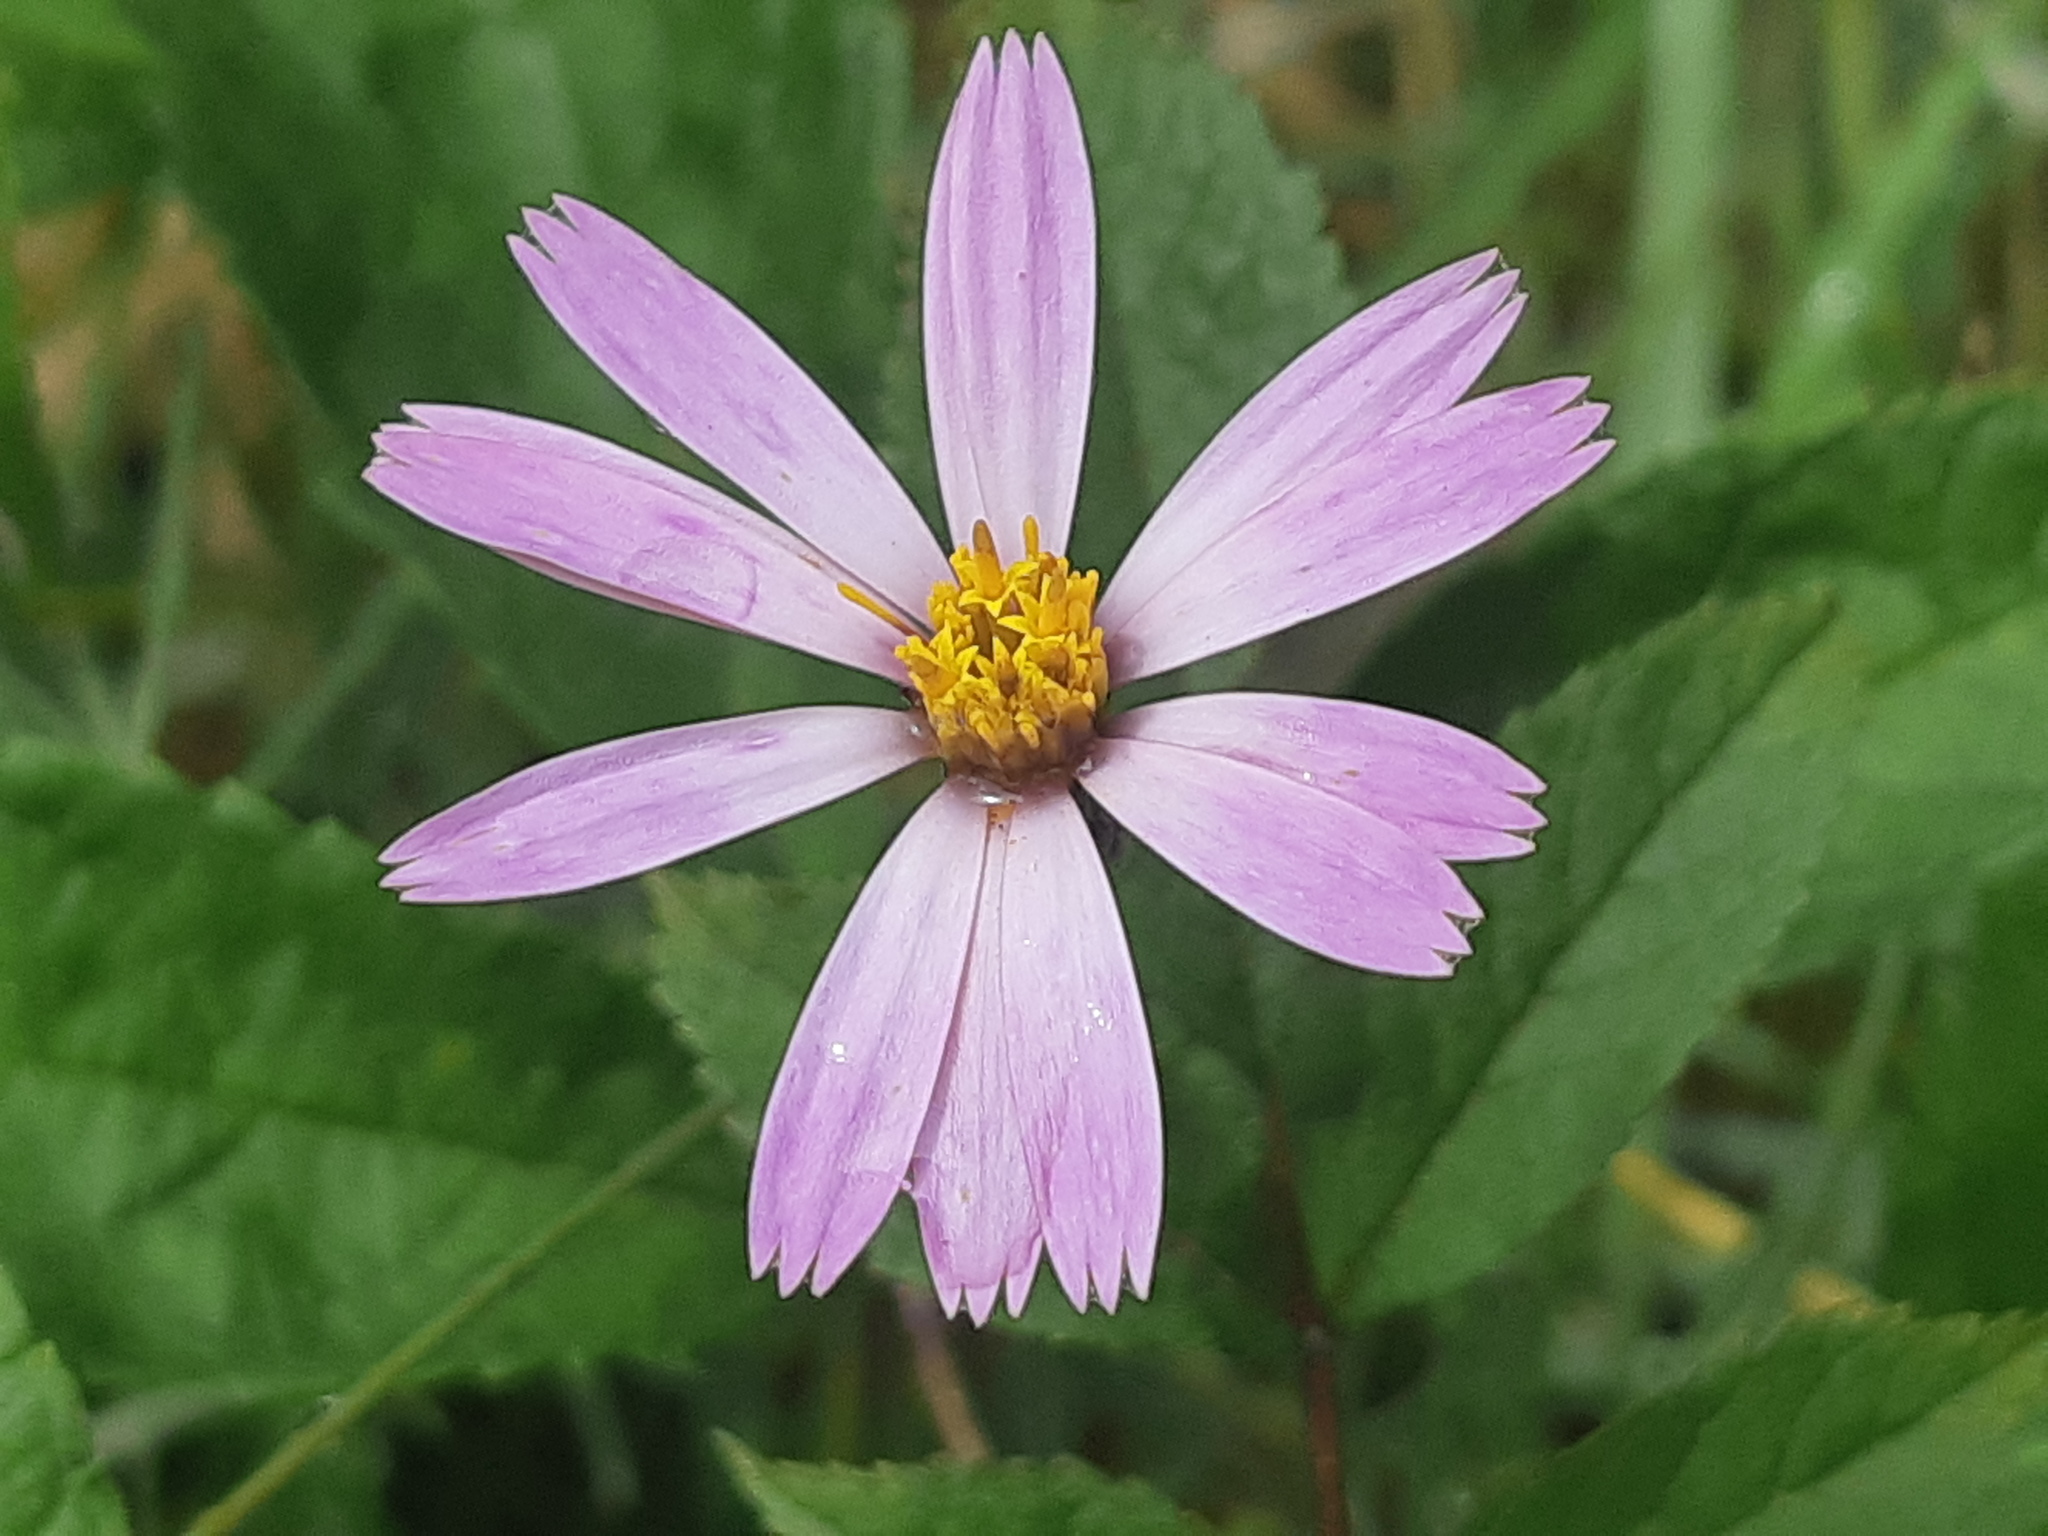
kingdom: Plantae
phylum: Tracheophyta
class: Magnoliopsida
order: Asterales
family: Asteraceae
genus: Onoseris
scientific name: Onoseris hyssopifolia
